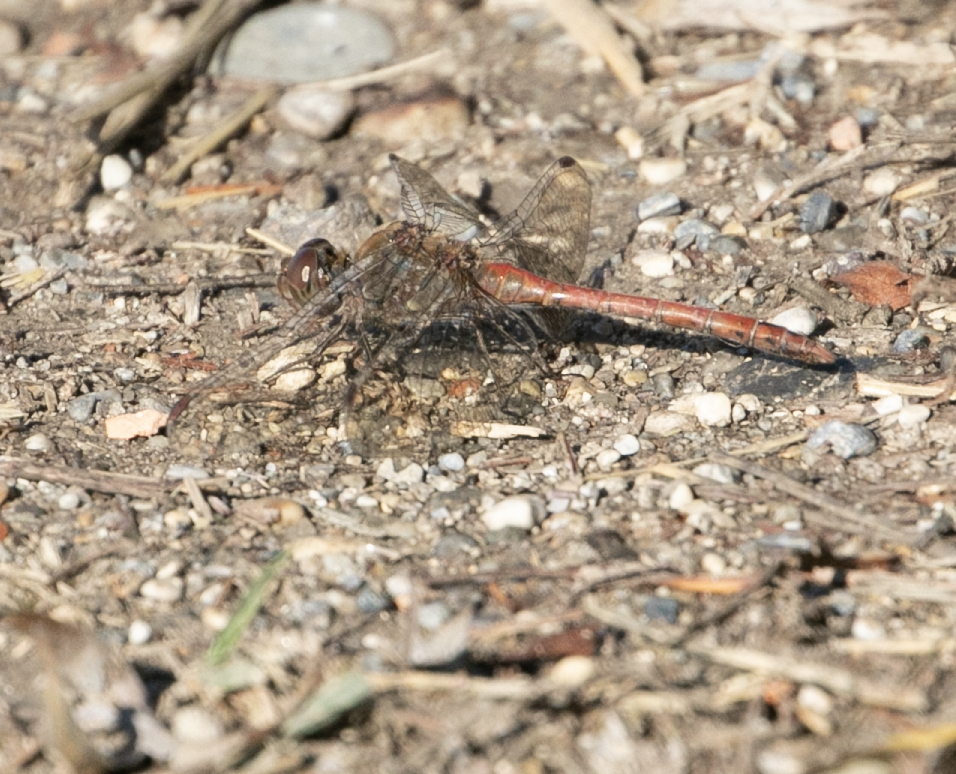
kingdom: Animalia
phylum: Arthropoda
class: Insecta
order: Odonata
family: Libellulidae
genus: Sympetrum
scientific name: Sympetrum striolatum
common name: Common darter
